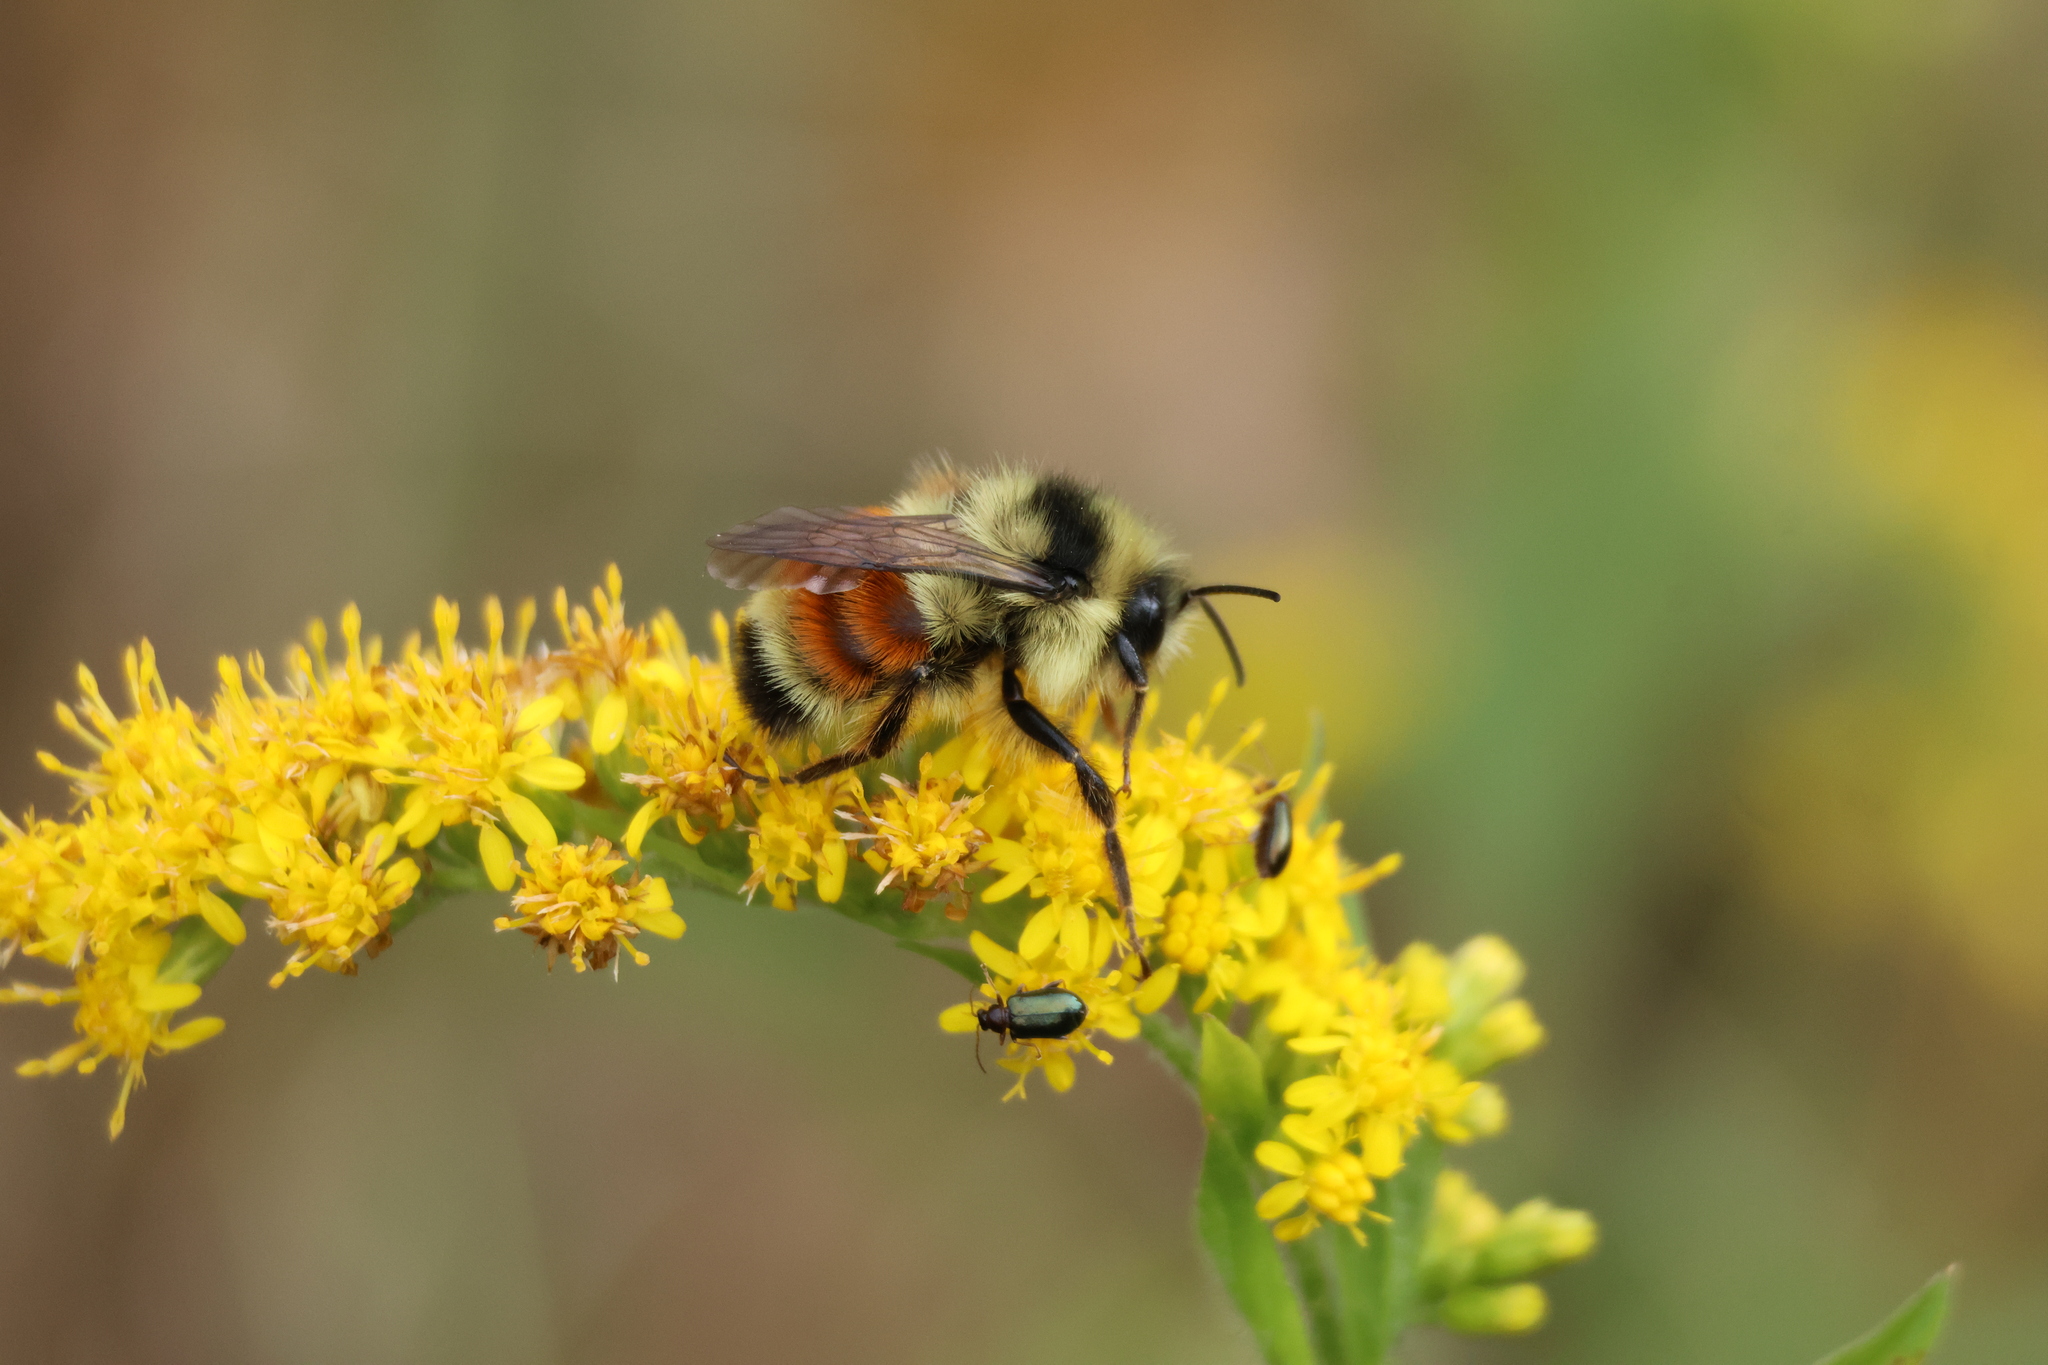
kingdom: Animalia
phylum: Arthropoda
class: Insecta
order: Hymenoptera
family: Apidae
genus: Bombus
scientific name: Bombus ternarius
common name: Tri-colored bumble bee
